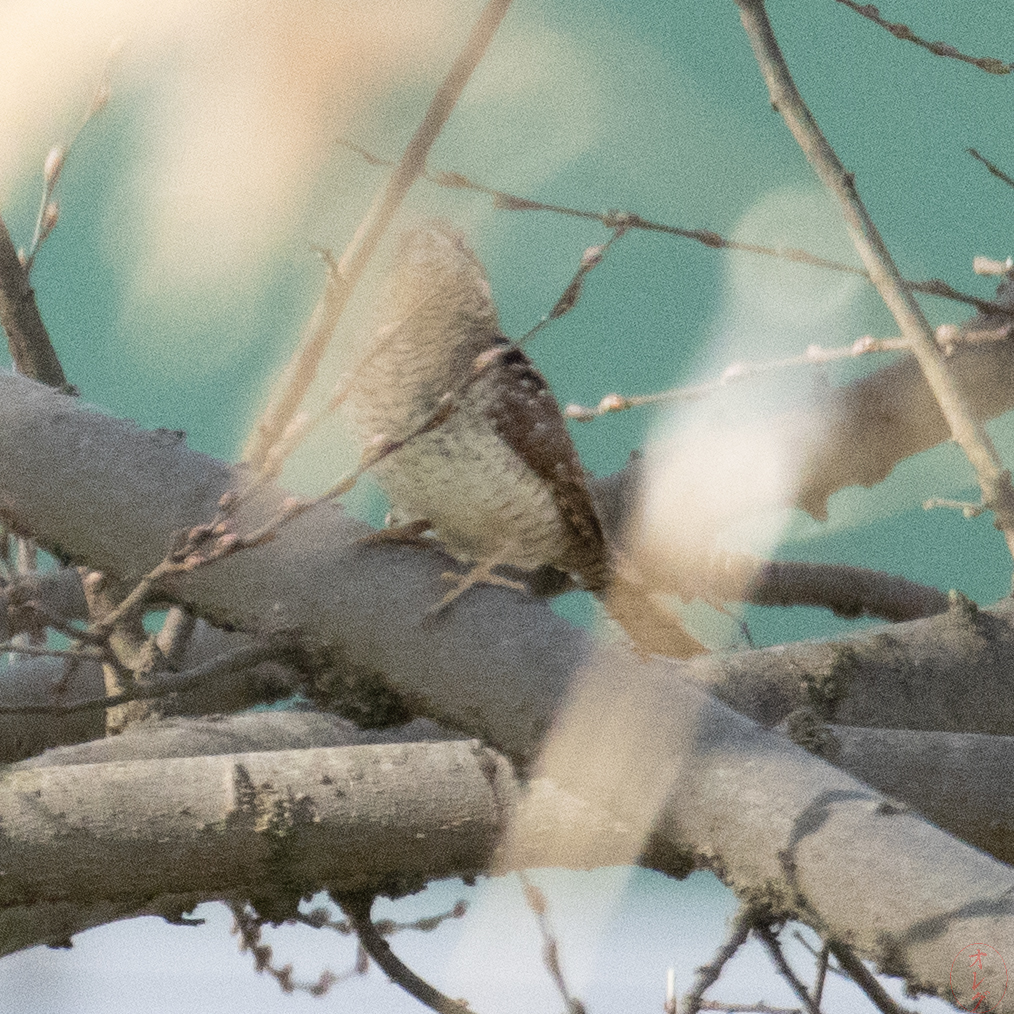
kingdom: Animalia
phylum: Chordata
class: Aves
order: Piciformes
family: Picidae
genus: Jynx
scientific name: Jynx torquilla
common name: Eurasian wryneck
